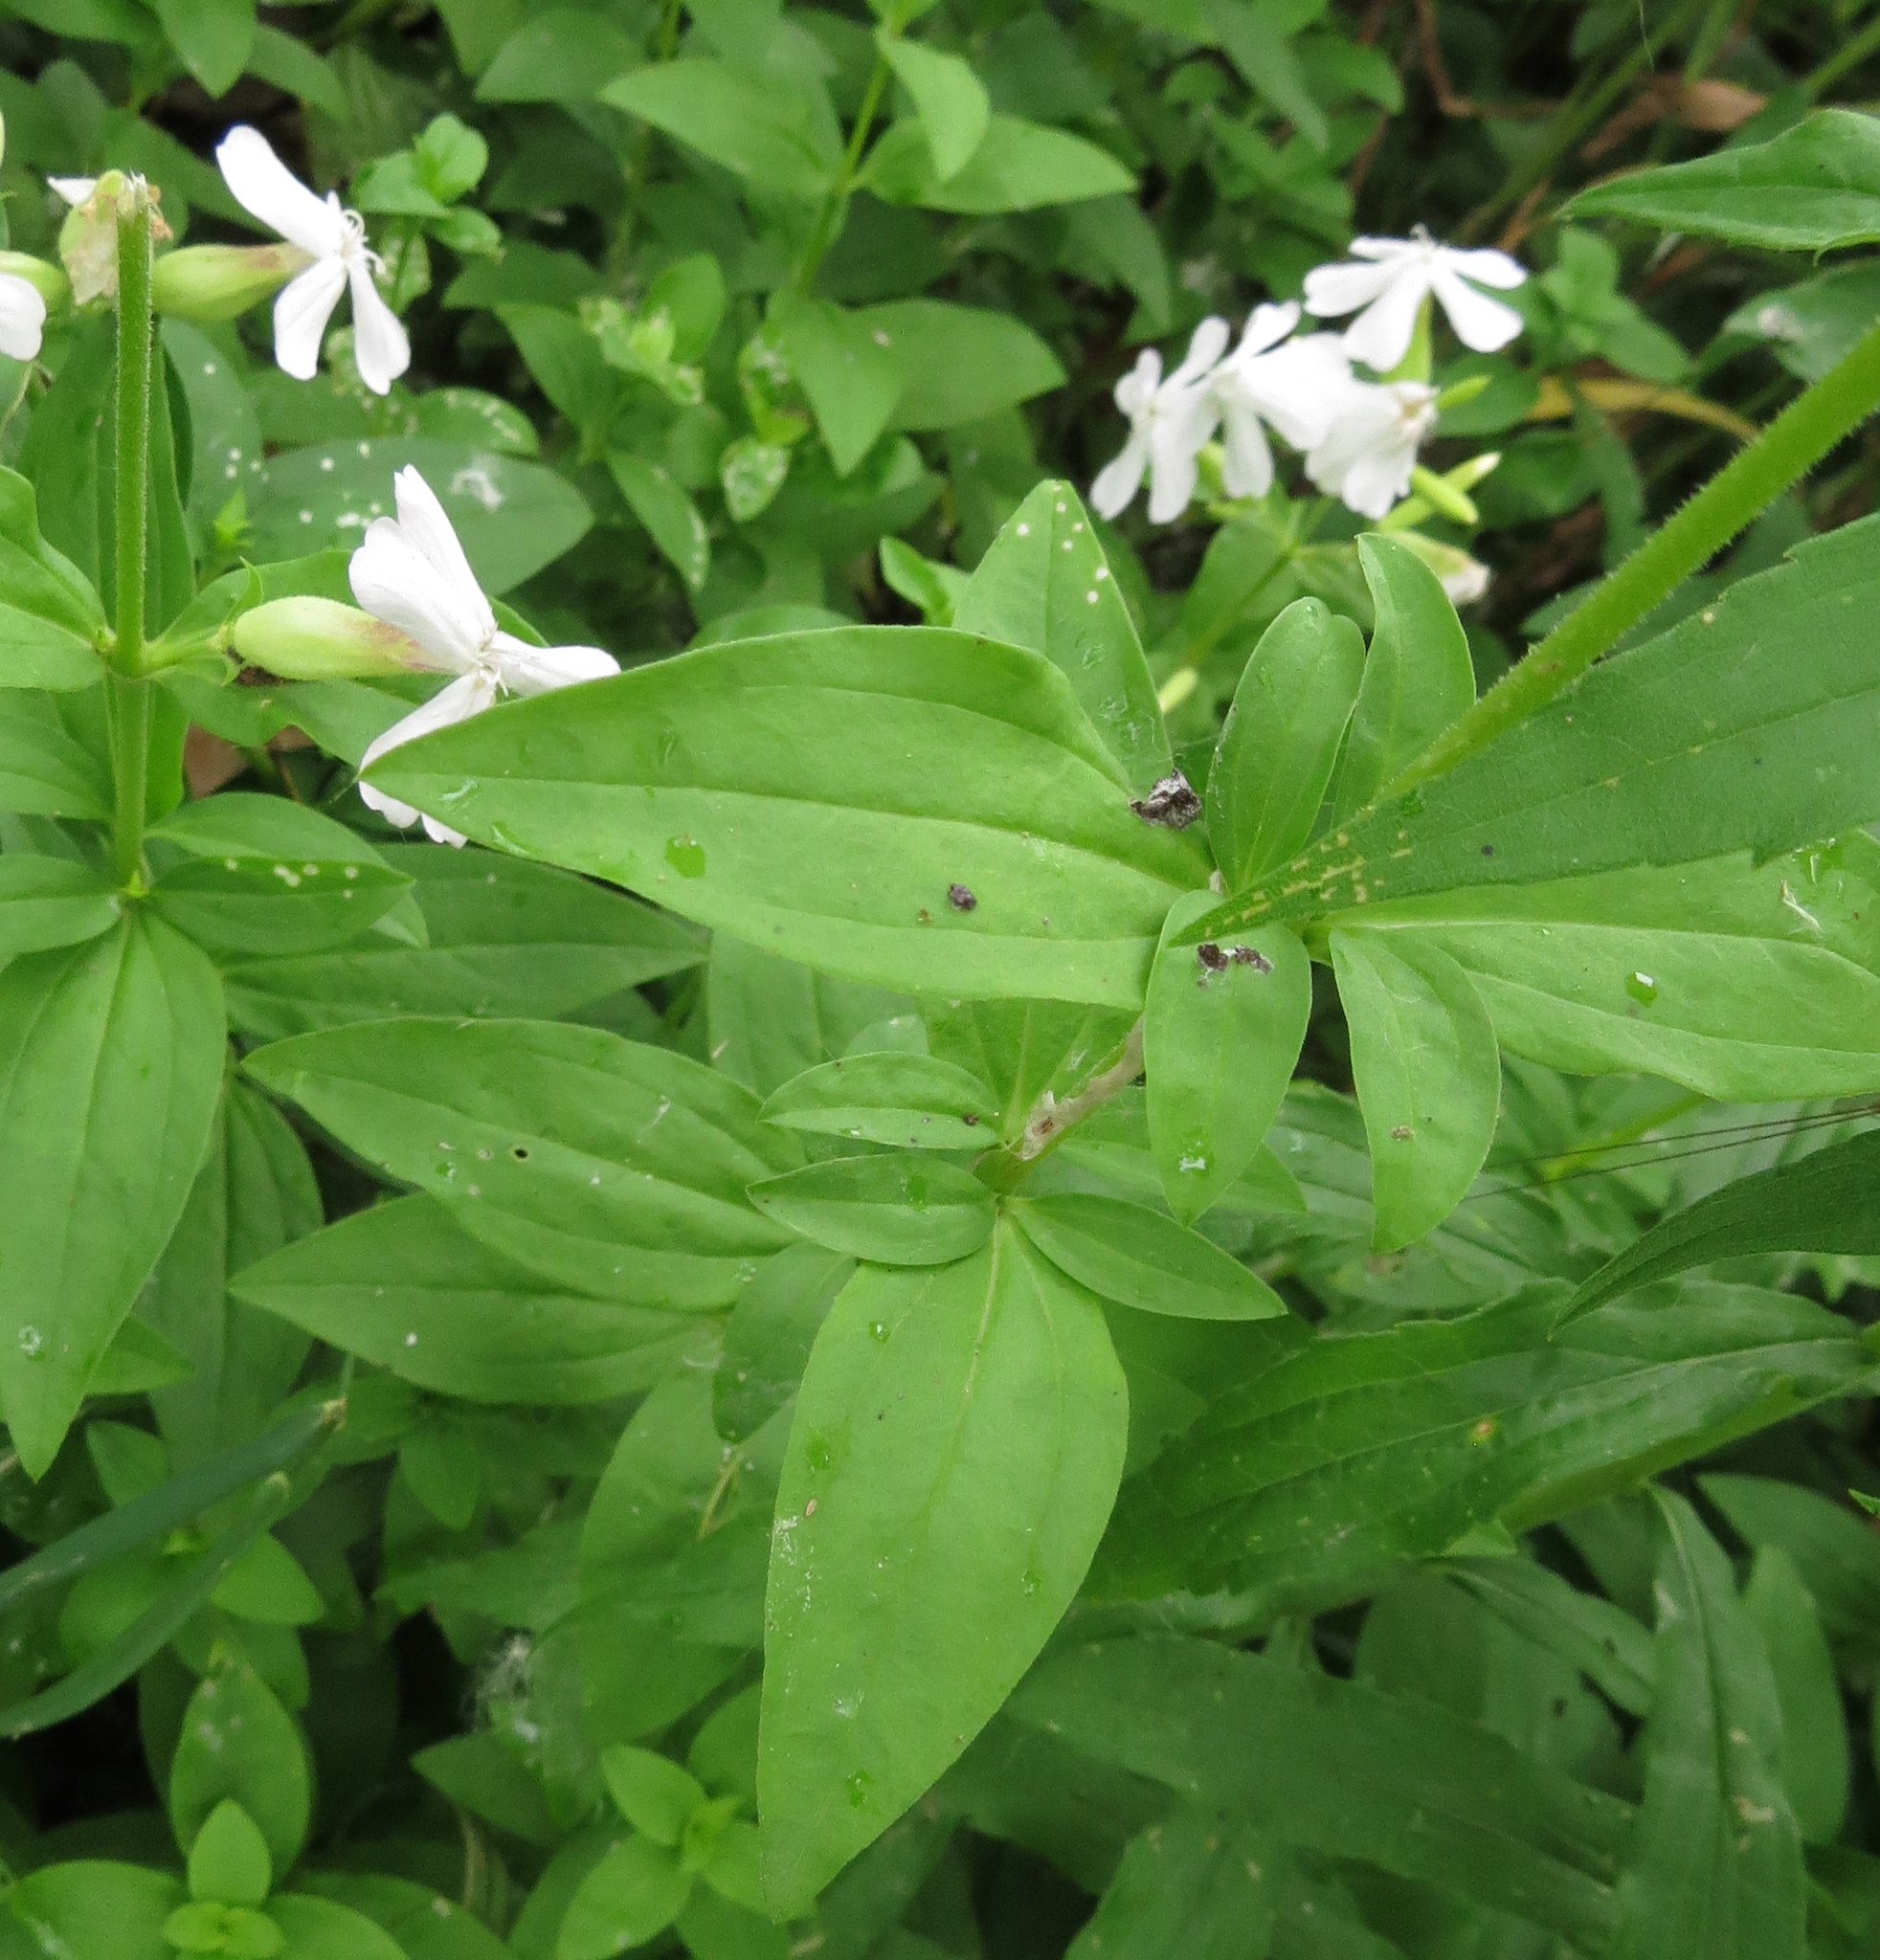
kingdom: Plantae
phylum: Tracheophyta
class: Magnoliopsida
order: Caryophyllales
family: Caryophyllaceae
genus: Saponaria
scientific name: Saponaria officinalis
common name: Soapwort
